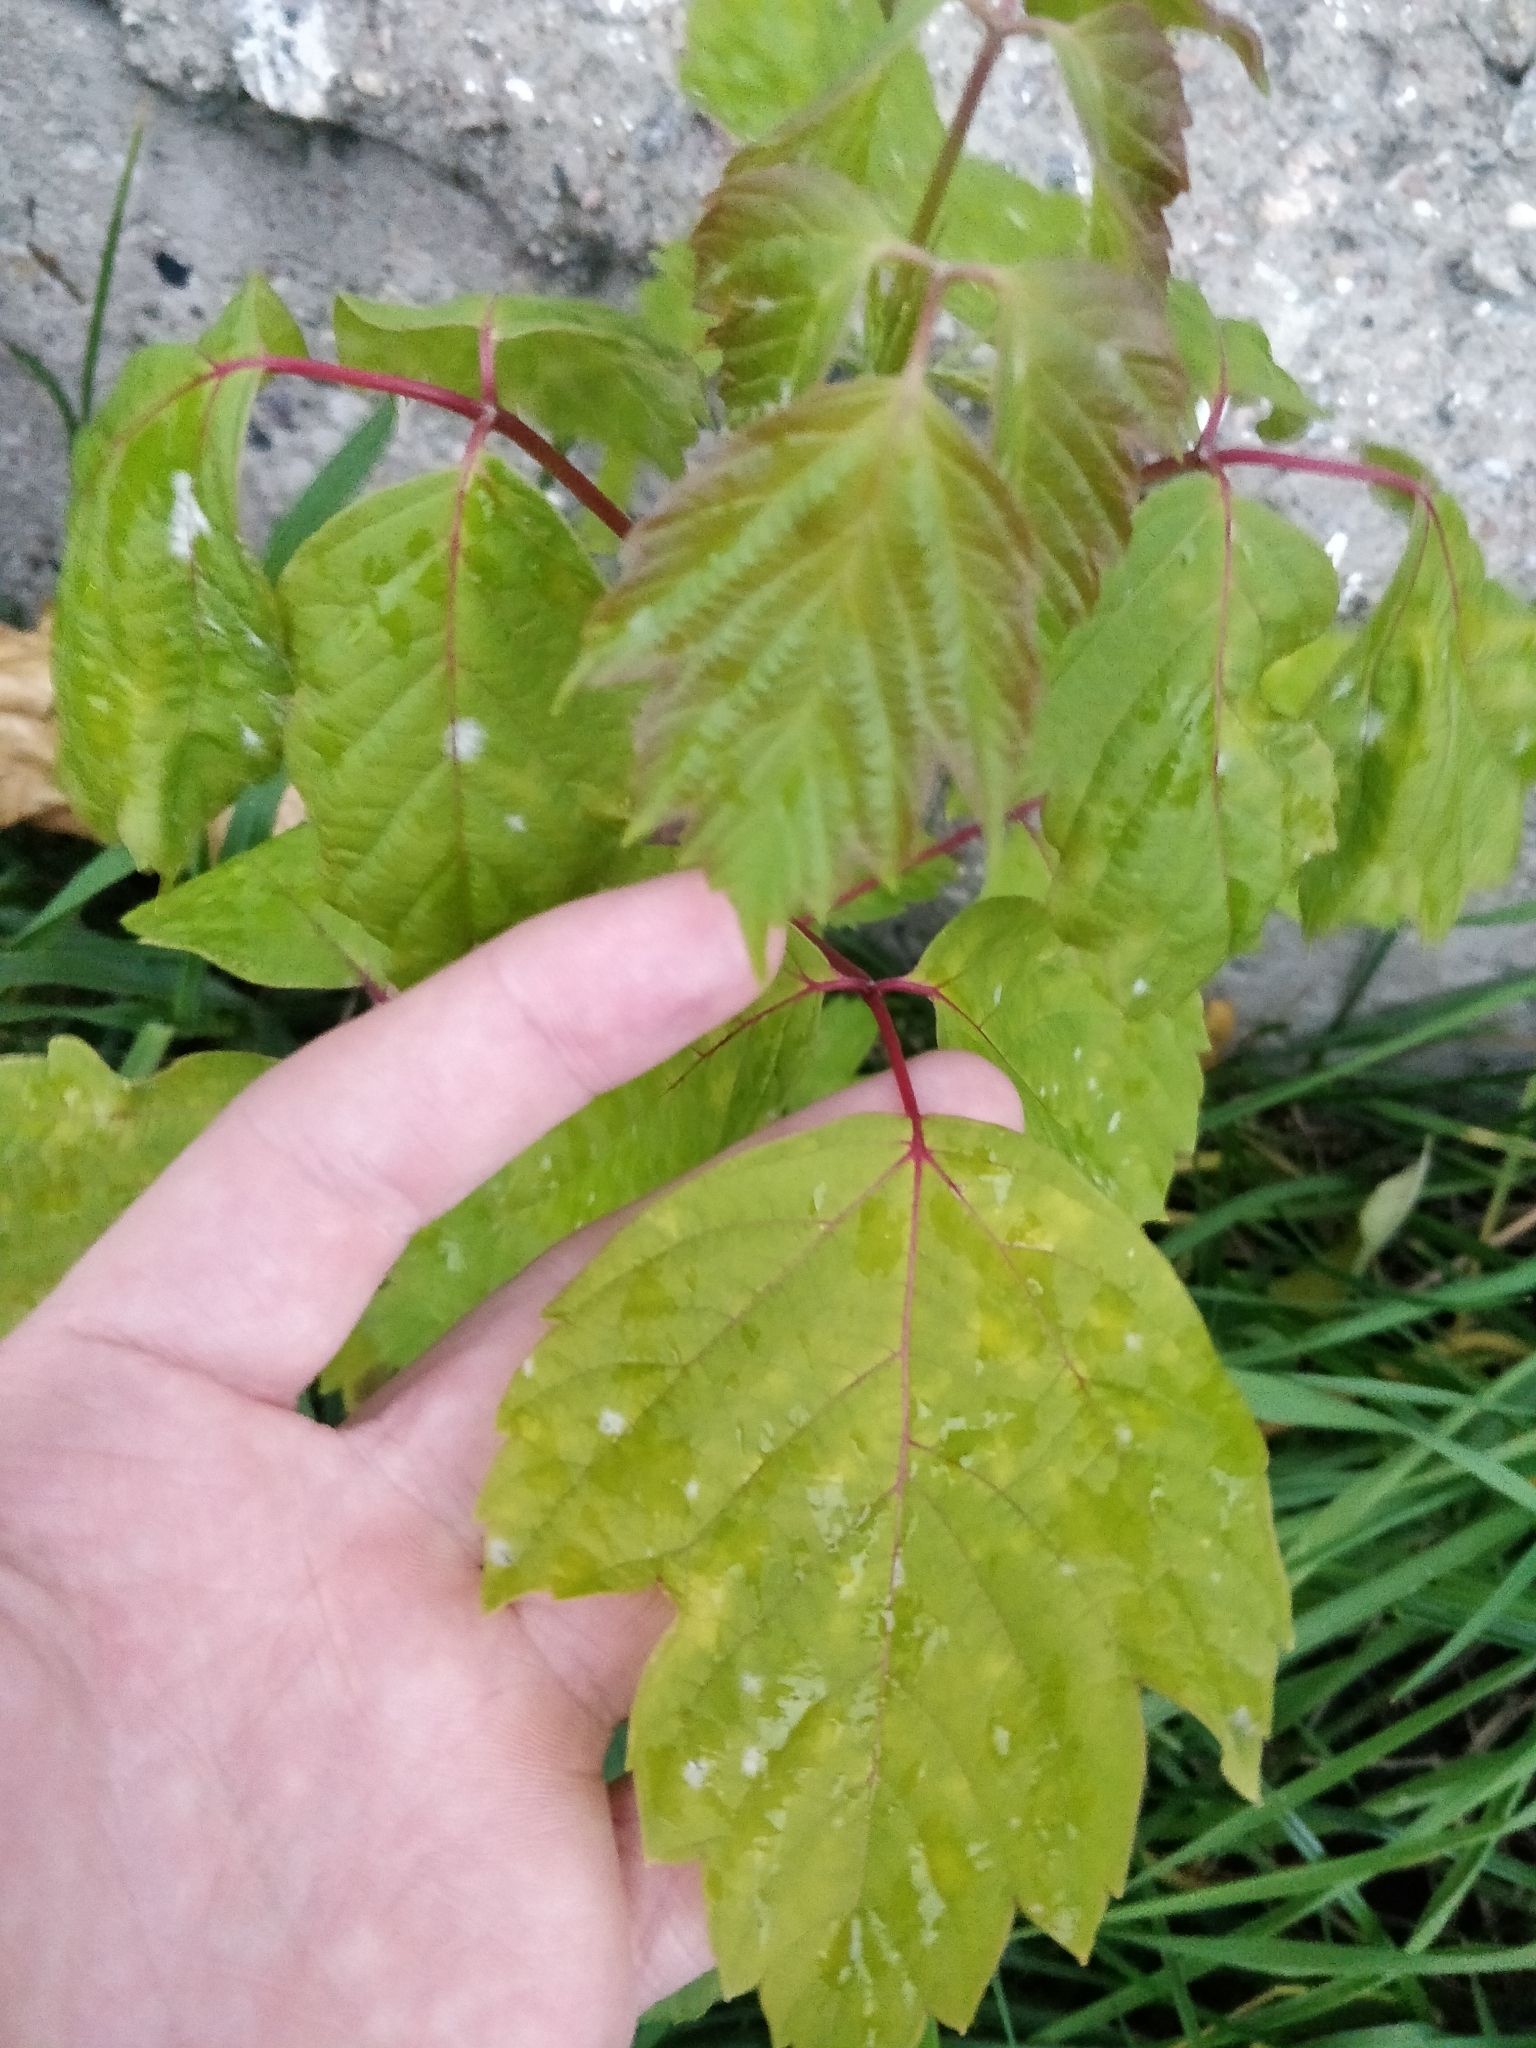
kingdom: Plantae
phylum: Tracheophyta
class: Magnoliopsida
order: Sapindales
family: Sapindaceae
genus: Acer
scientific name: Acer negundo
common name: Ashleaf maple
